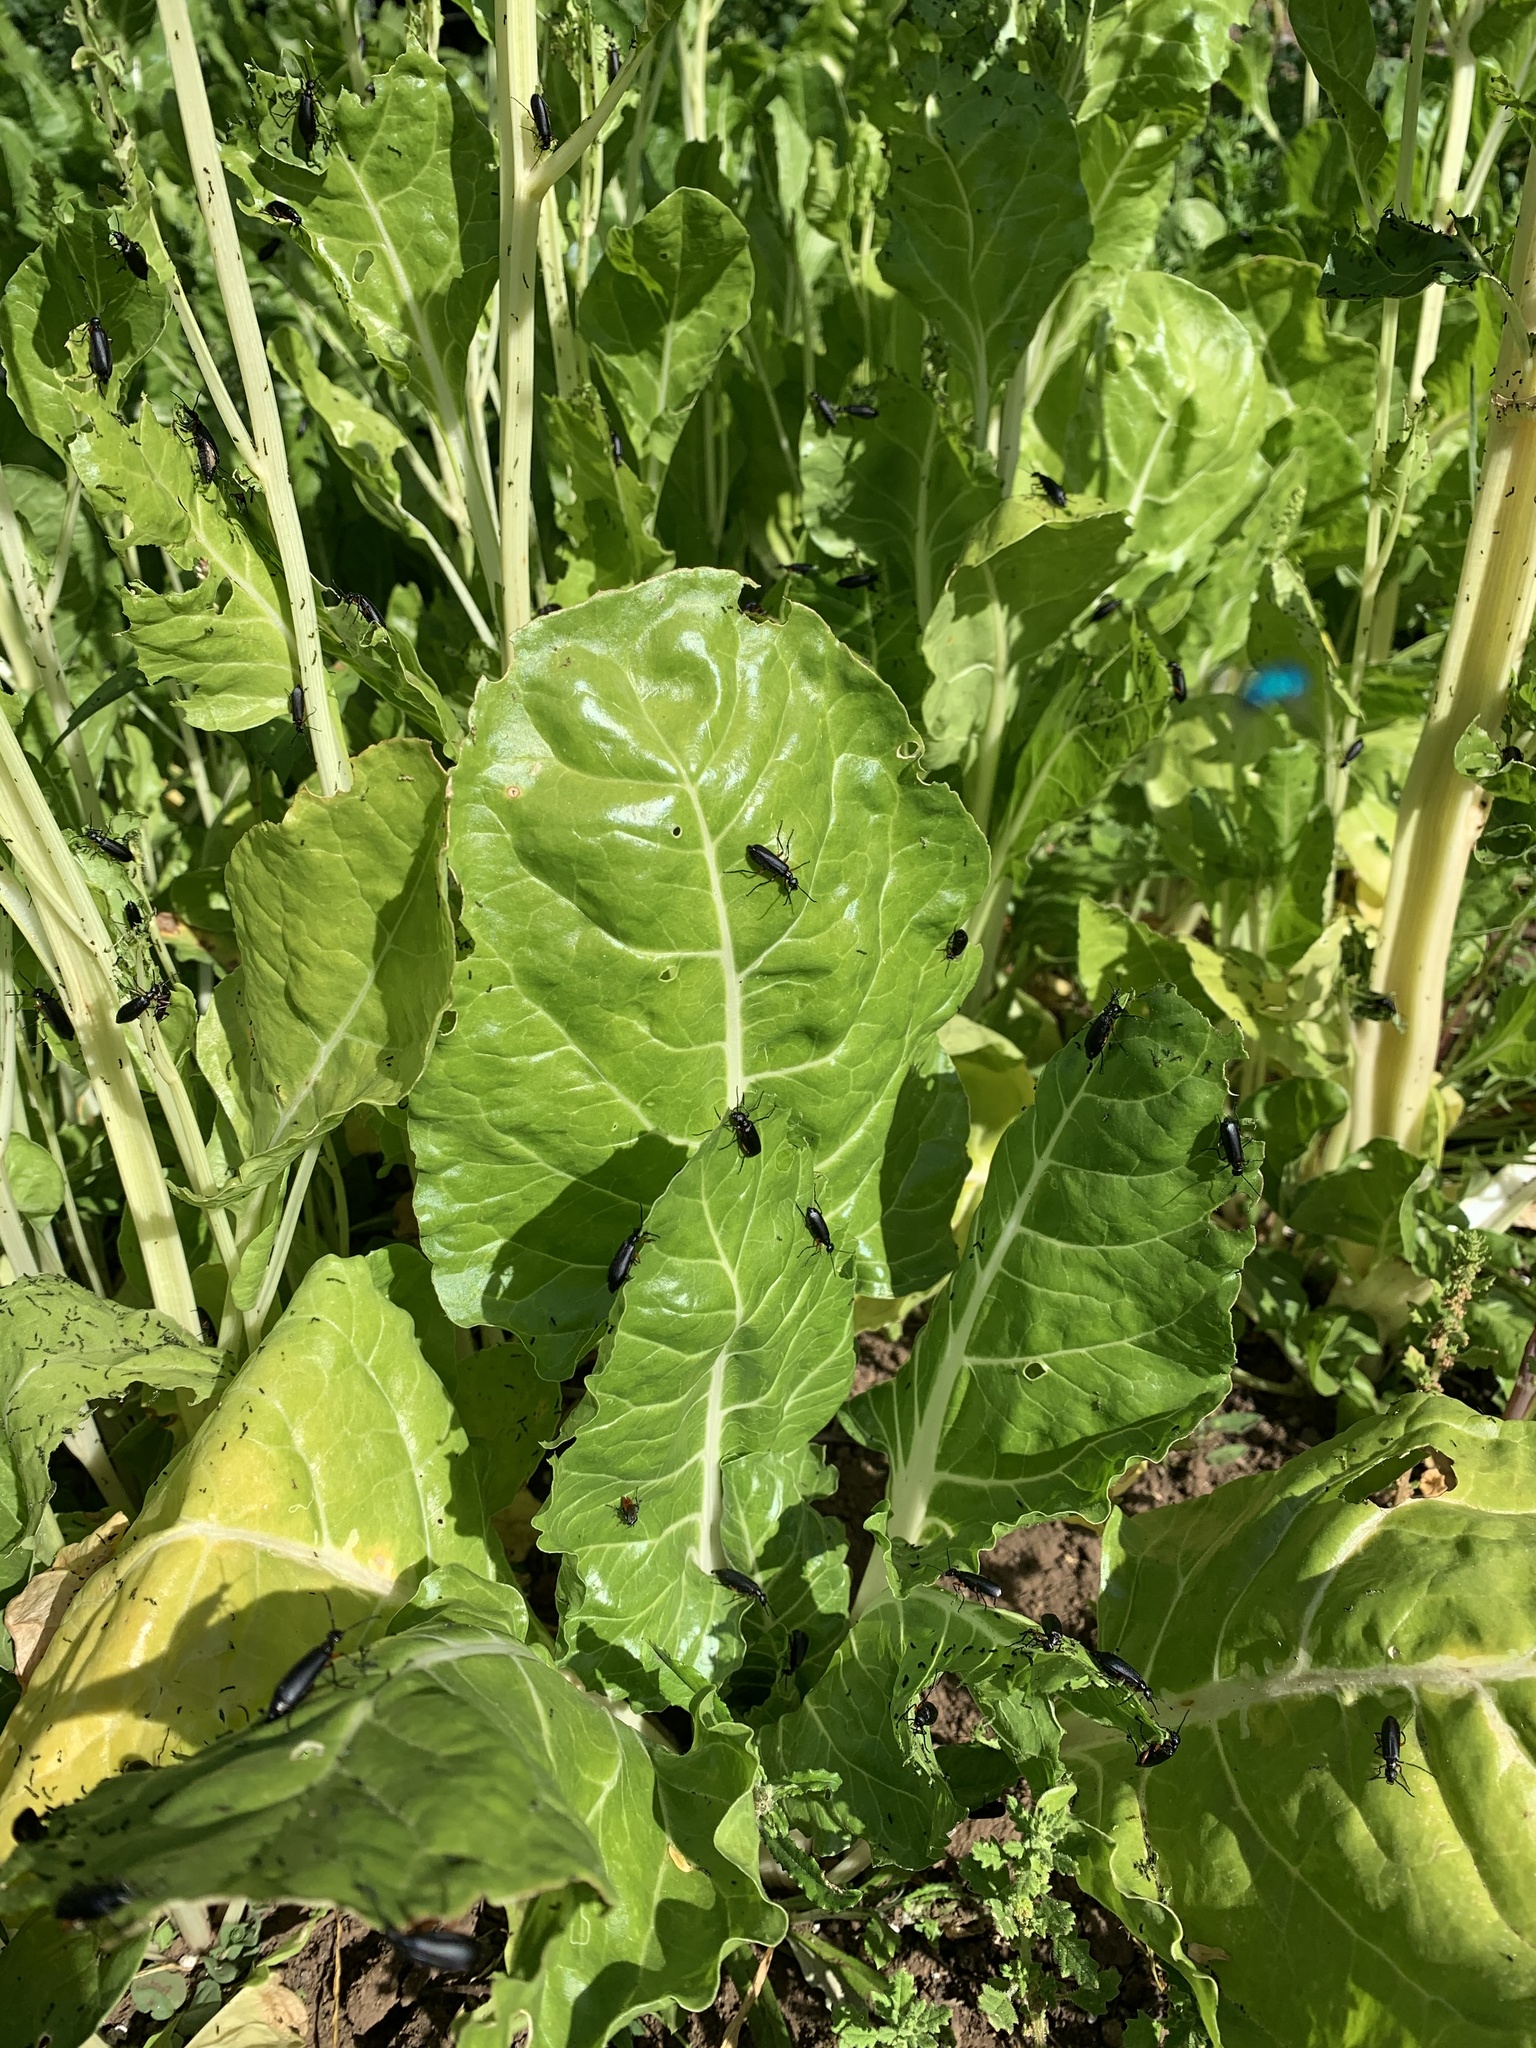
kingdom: Animalia
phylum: Arthropoda
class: Insecta
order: Coleoptera
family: Meloidae
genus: Epicauta
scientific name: Epicauta
